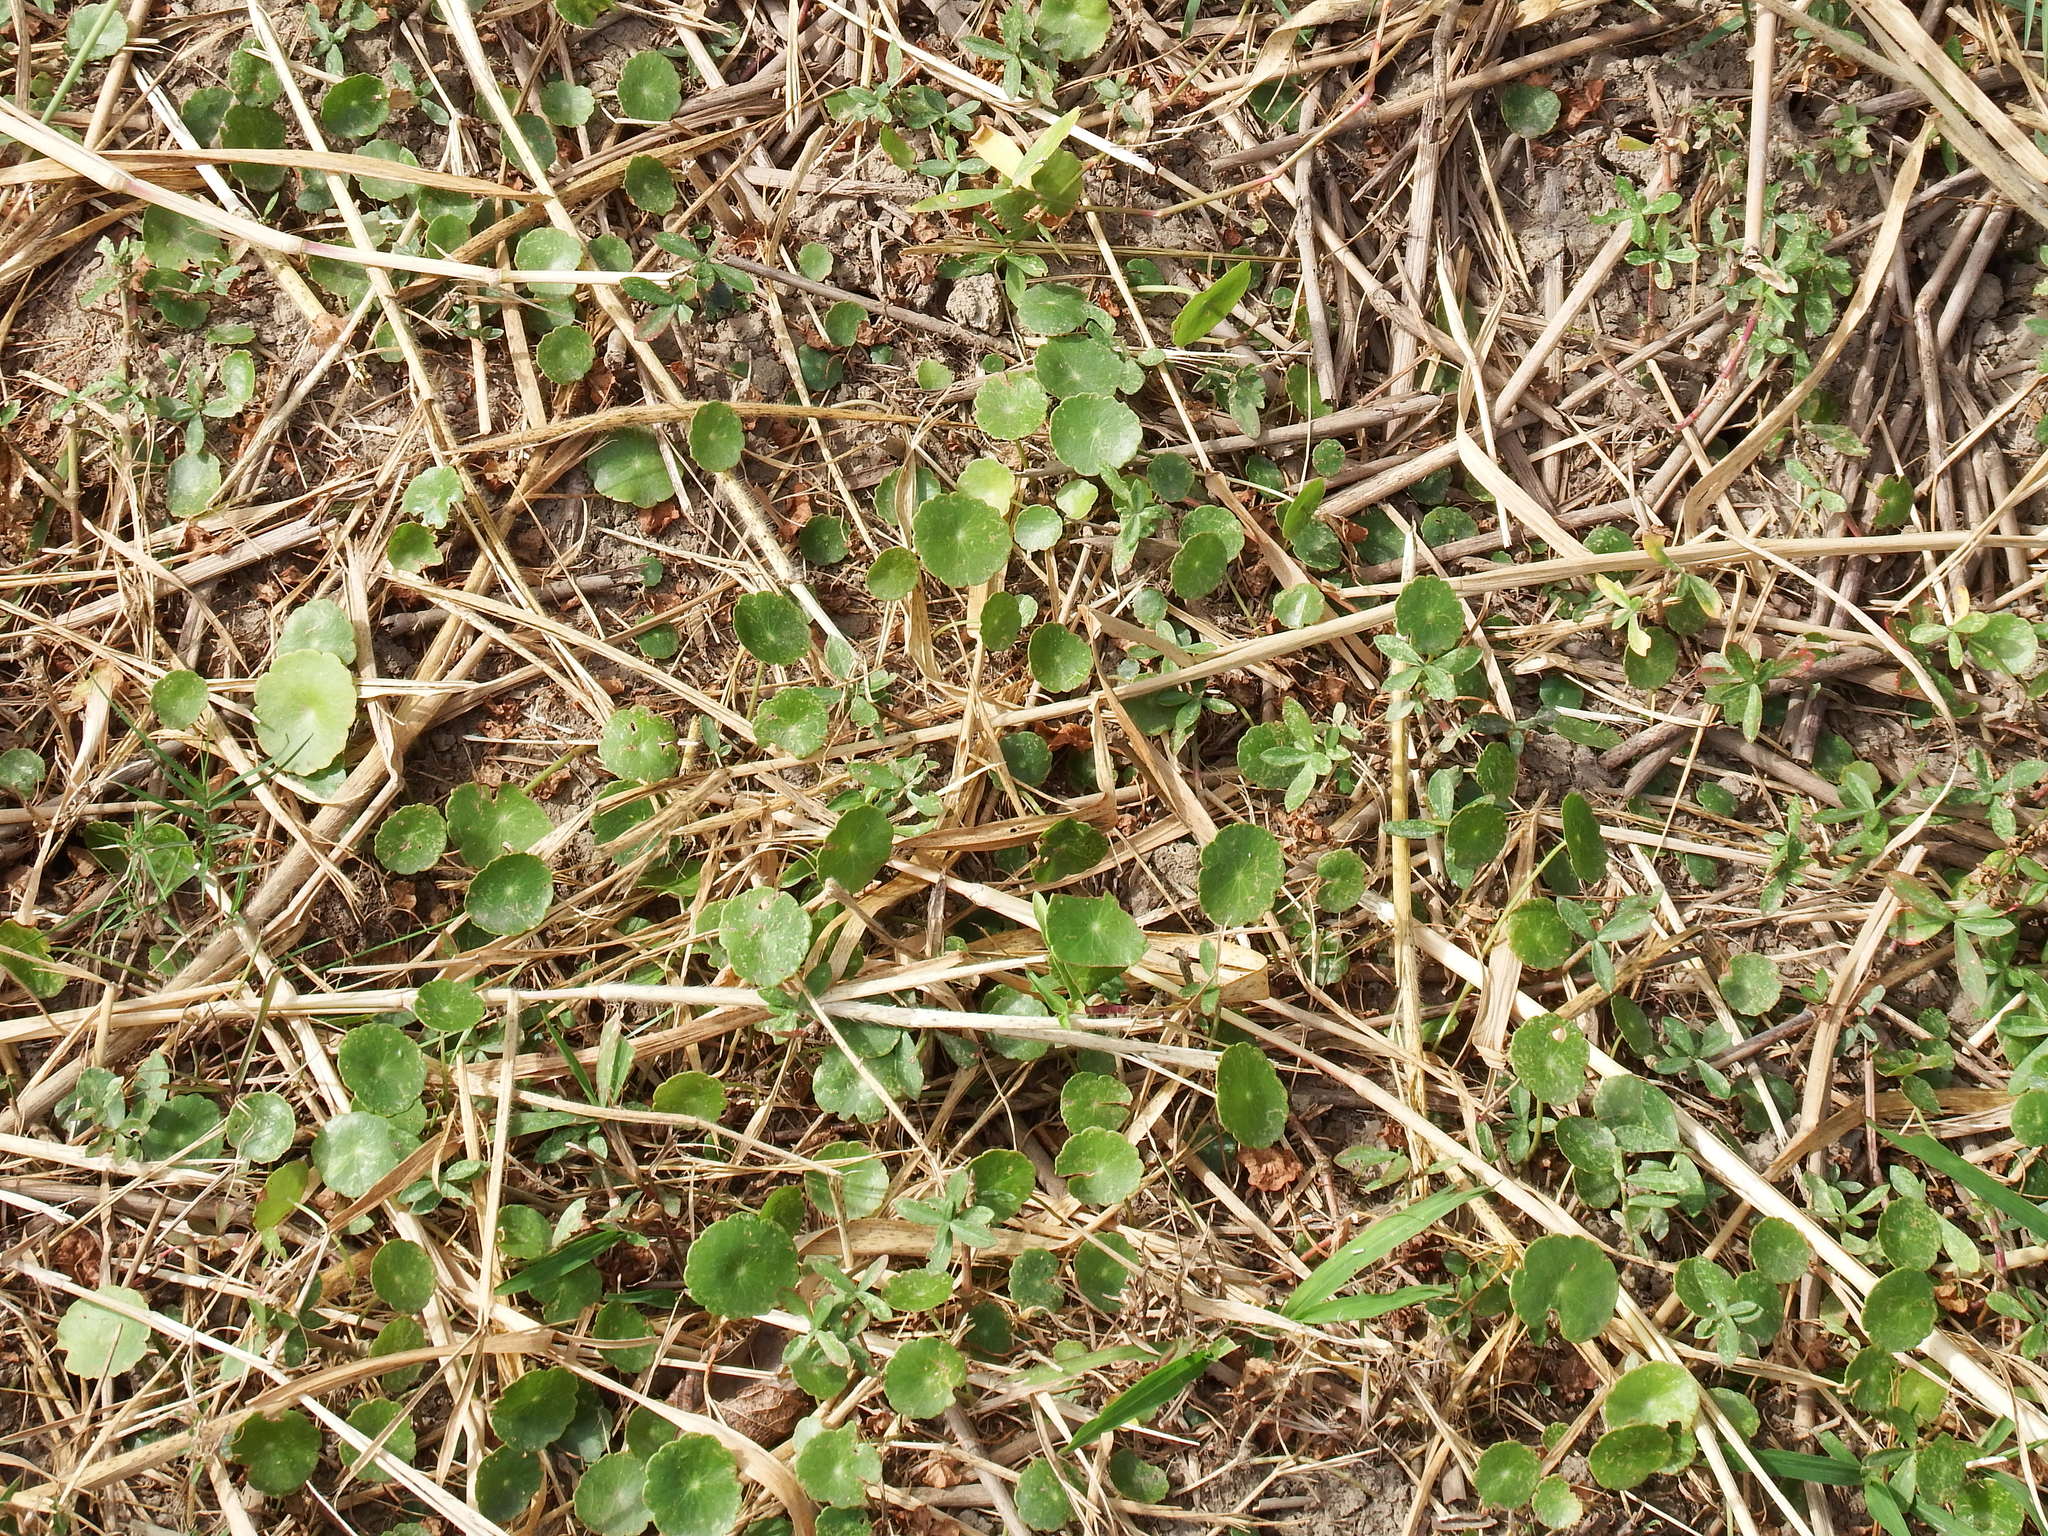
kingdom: Plantae
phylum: Tracheophyta
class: Magnoliopsida
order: Apiales
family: Araliaceae
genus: Hydrocotyle
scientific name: Hydrocotyle verticillata
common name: Whorled marshpennywort
